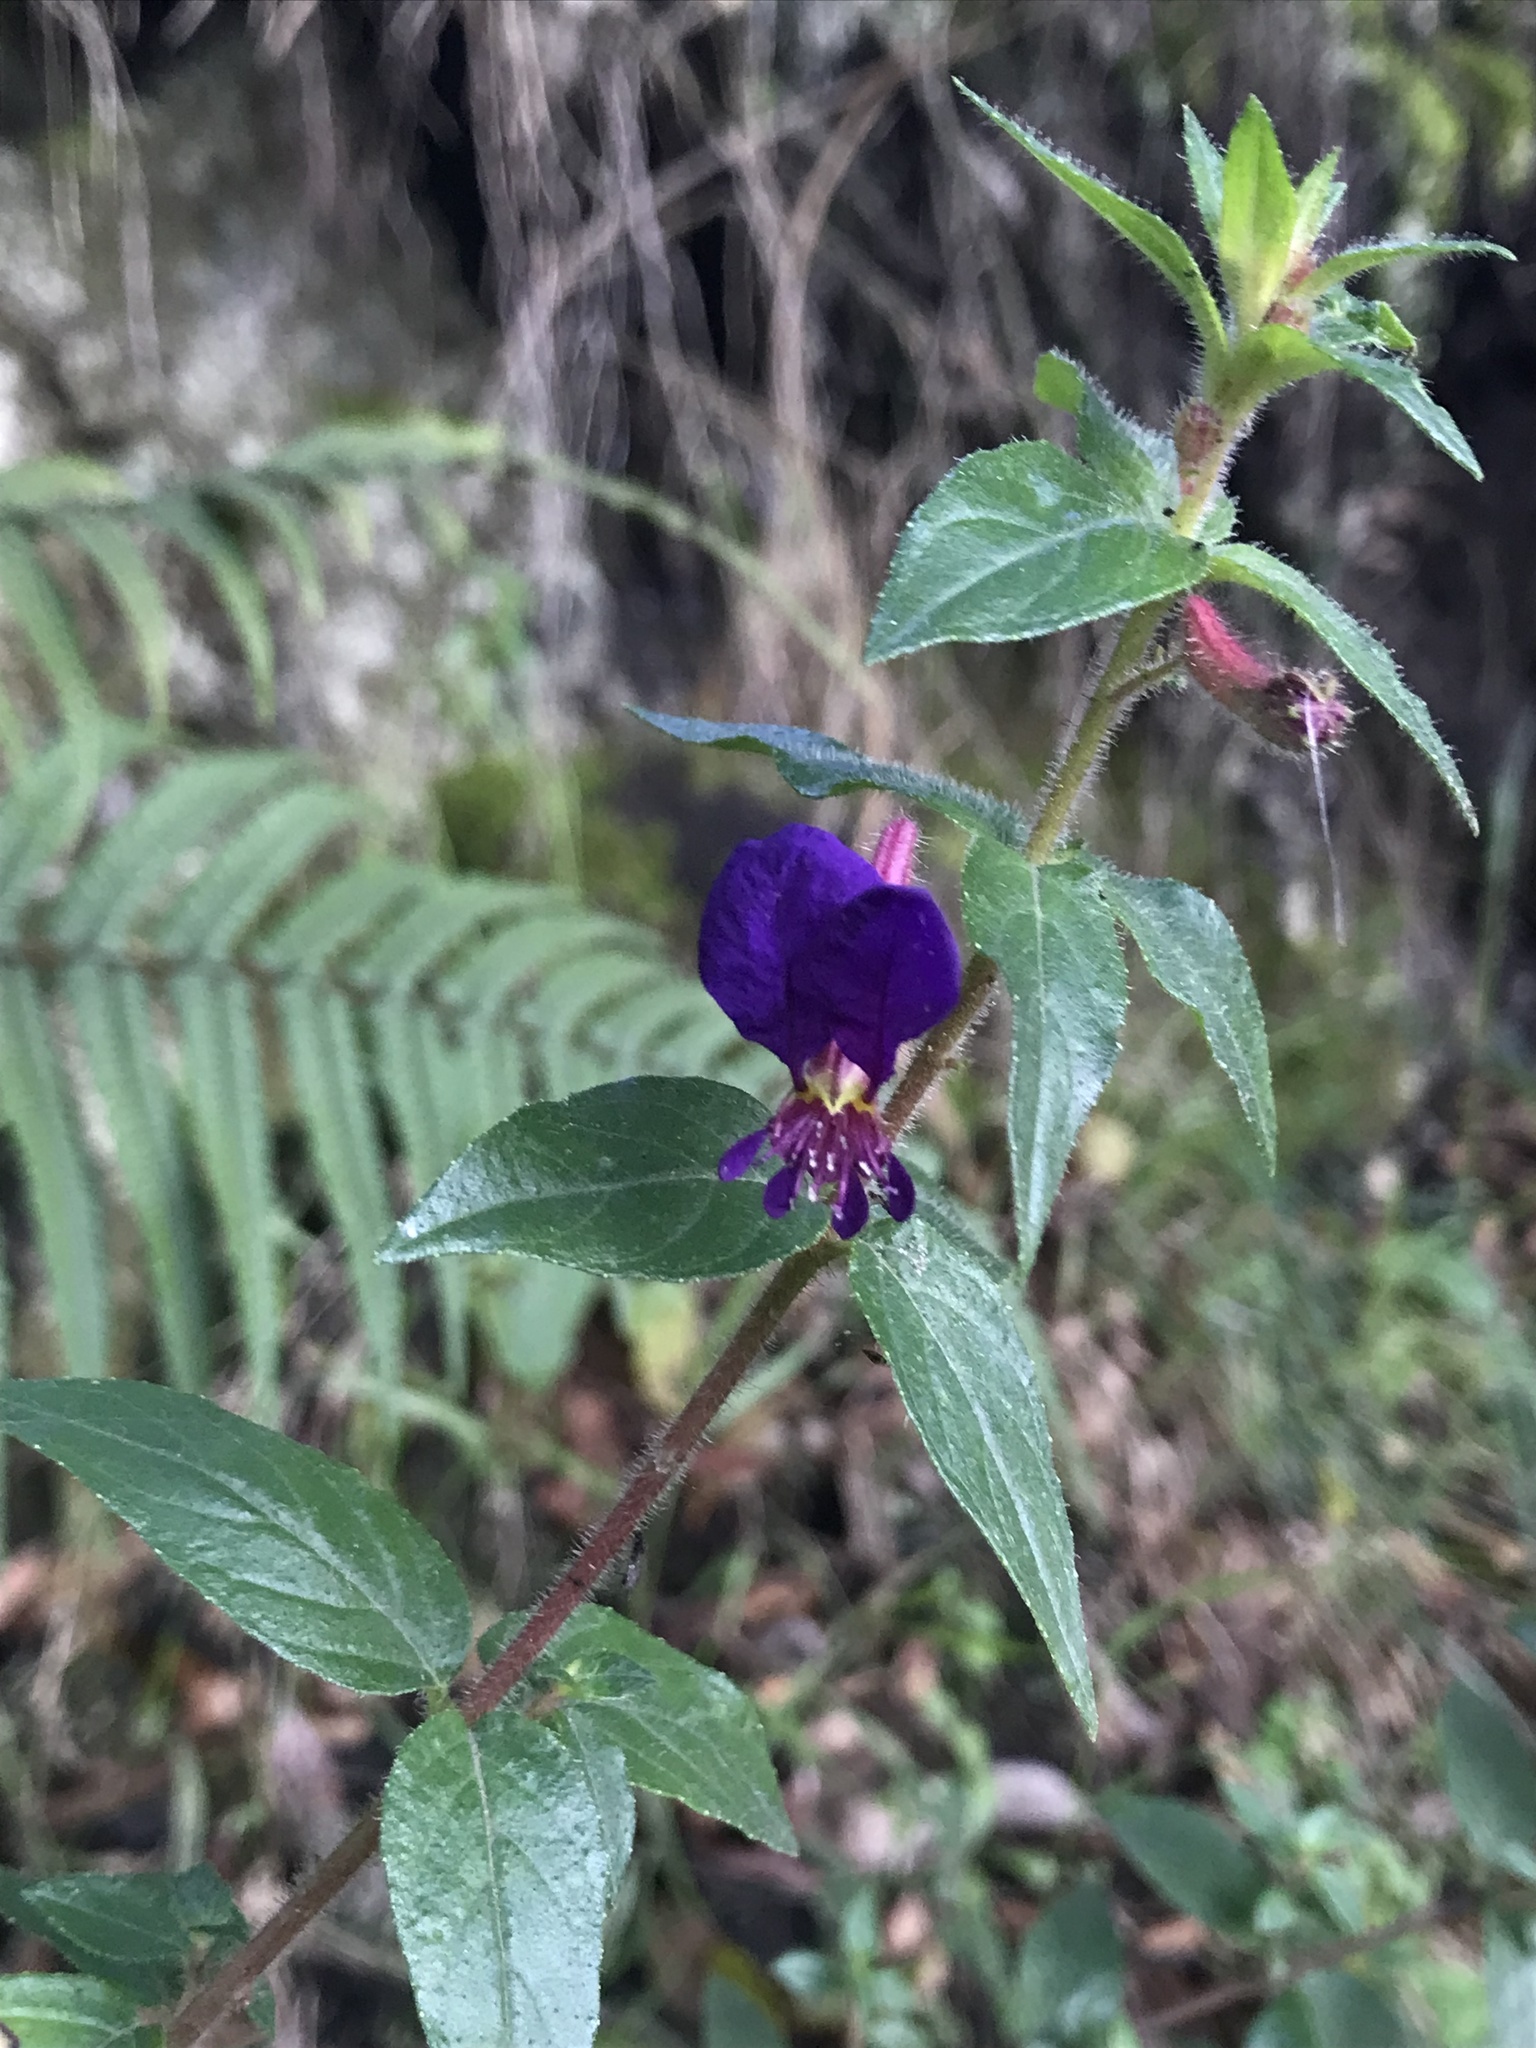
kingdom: Plantae
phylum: Tracheophyta
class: Magnoliopsida
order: Myrtales
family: Lythraceae
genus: Cuphea
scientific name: Cuphea dipetala
